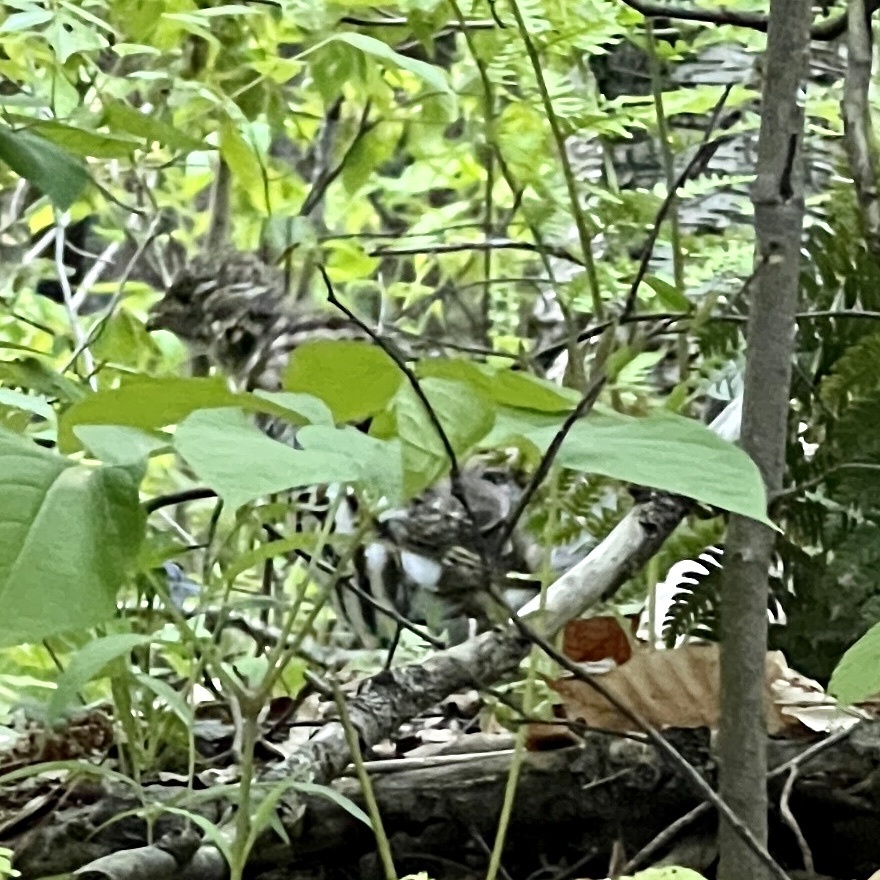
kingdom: Animalia
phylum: Chordata
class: Aves
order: Galliformes
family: Phasianidae
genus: Bonasa
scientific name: Bonasa umbellus
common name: Ruffed grouse
